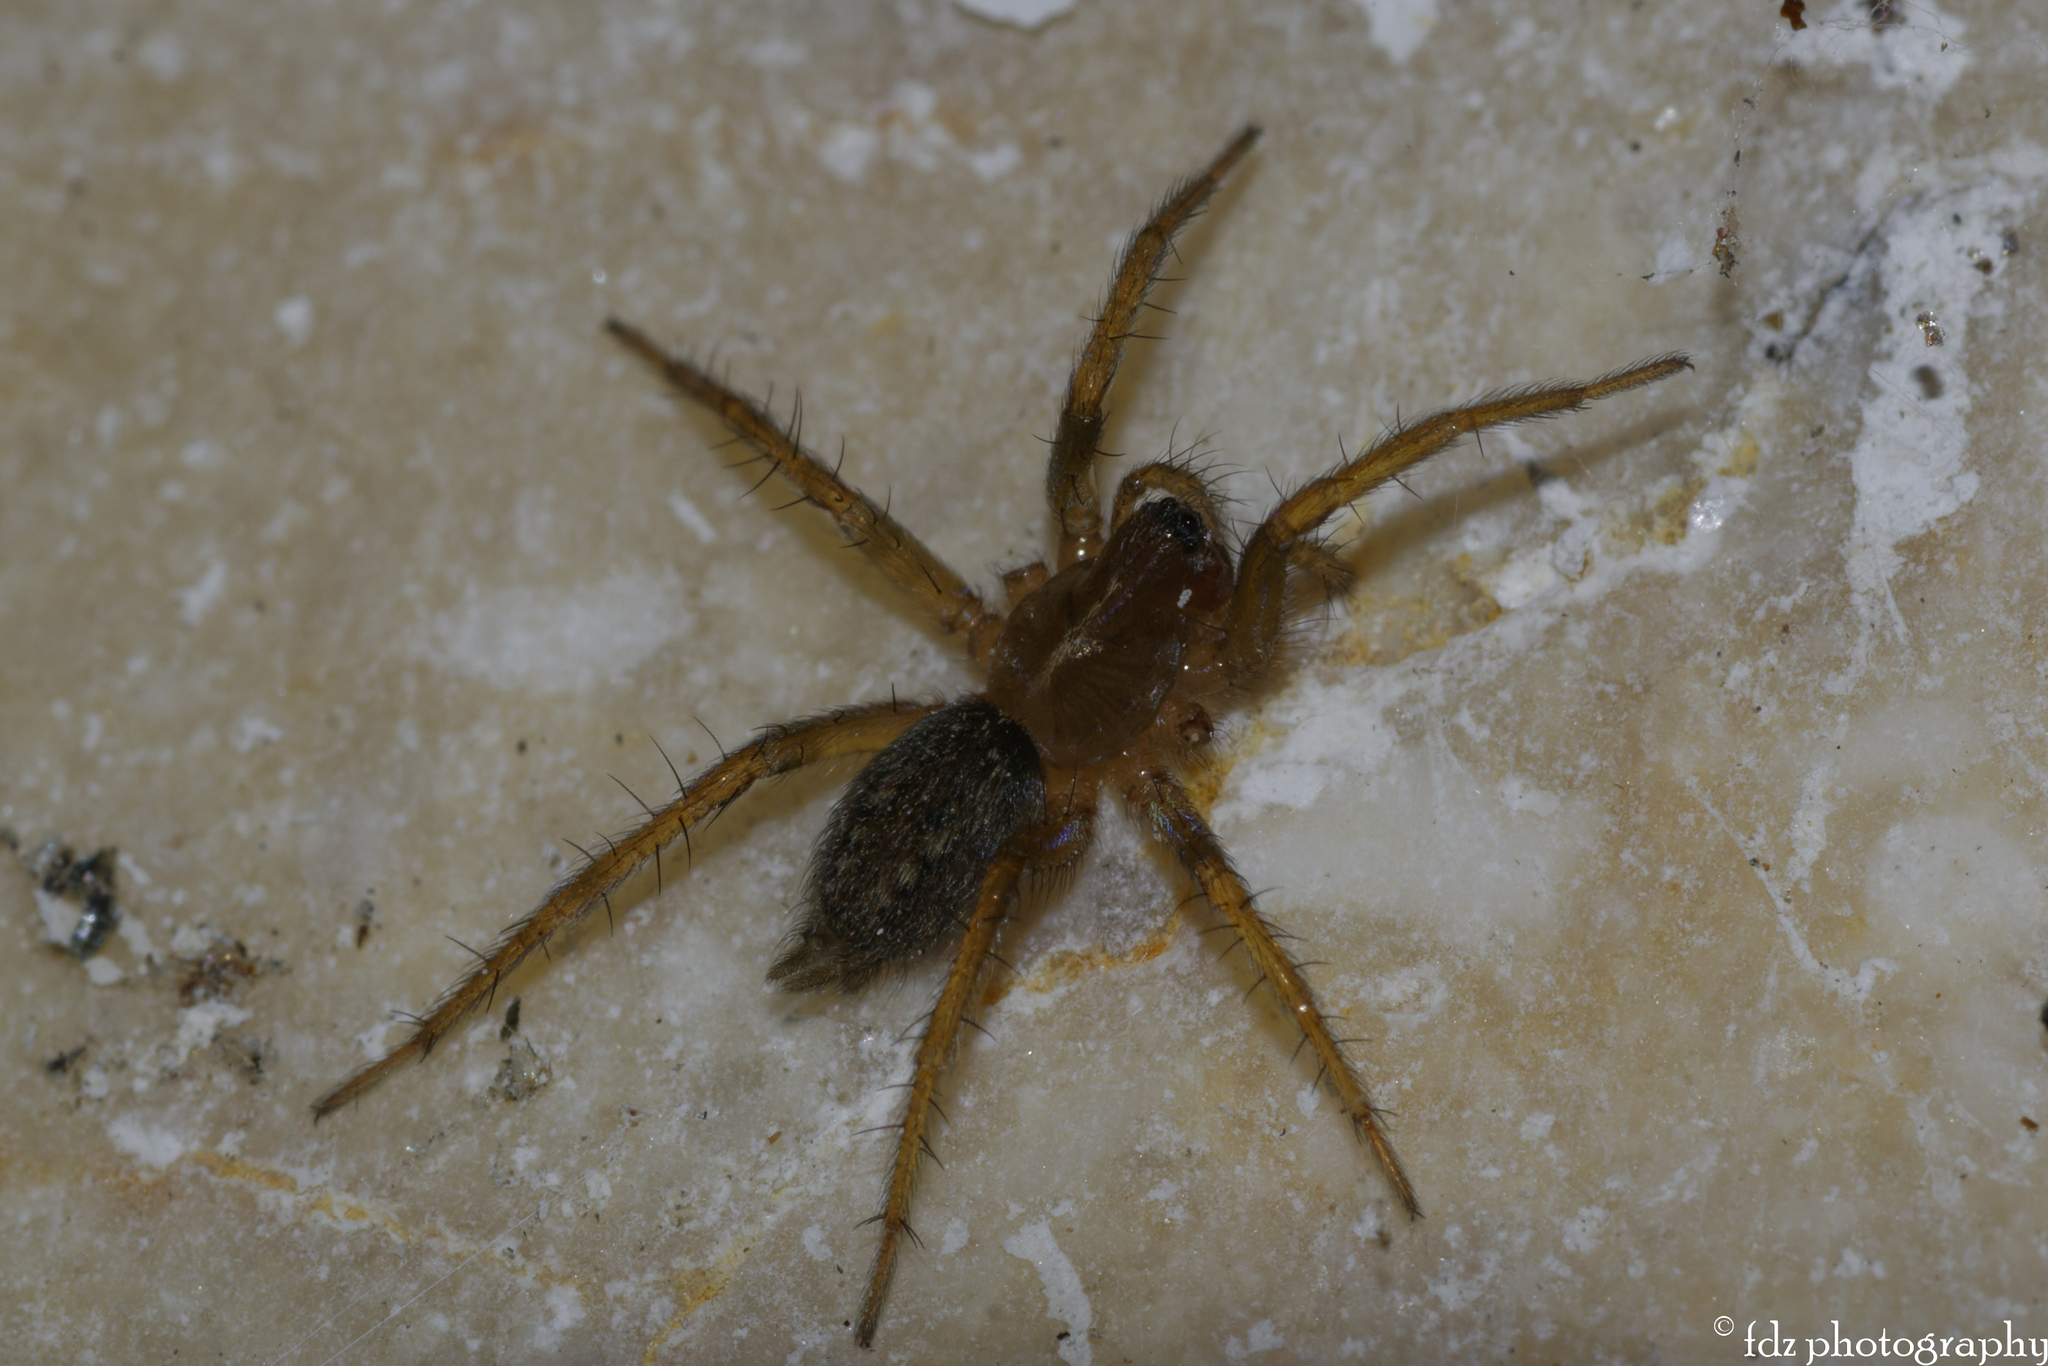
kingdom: Animalia
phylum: Arthropoda
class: Arachnida
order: Araneae
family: Agelenidae
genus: Lycosoides
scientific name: Lycosoides coarctata
